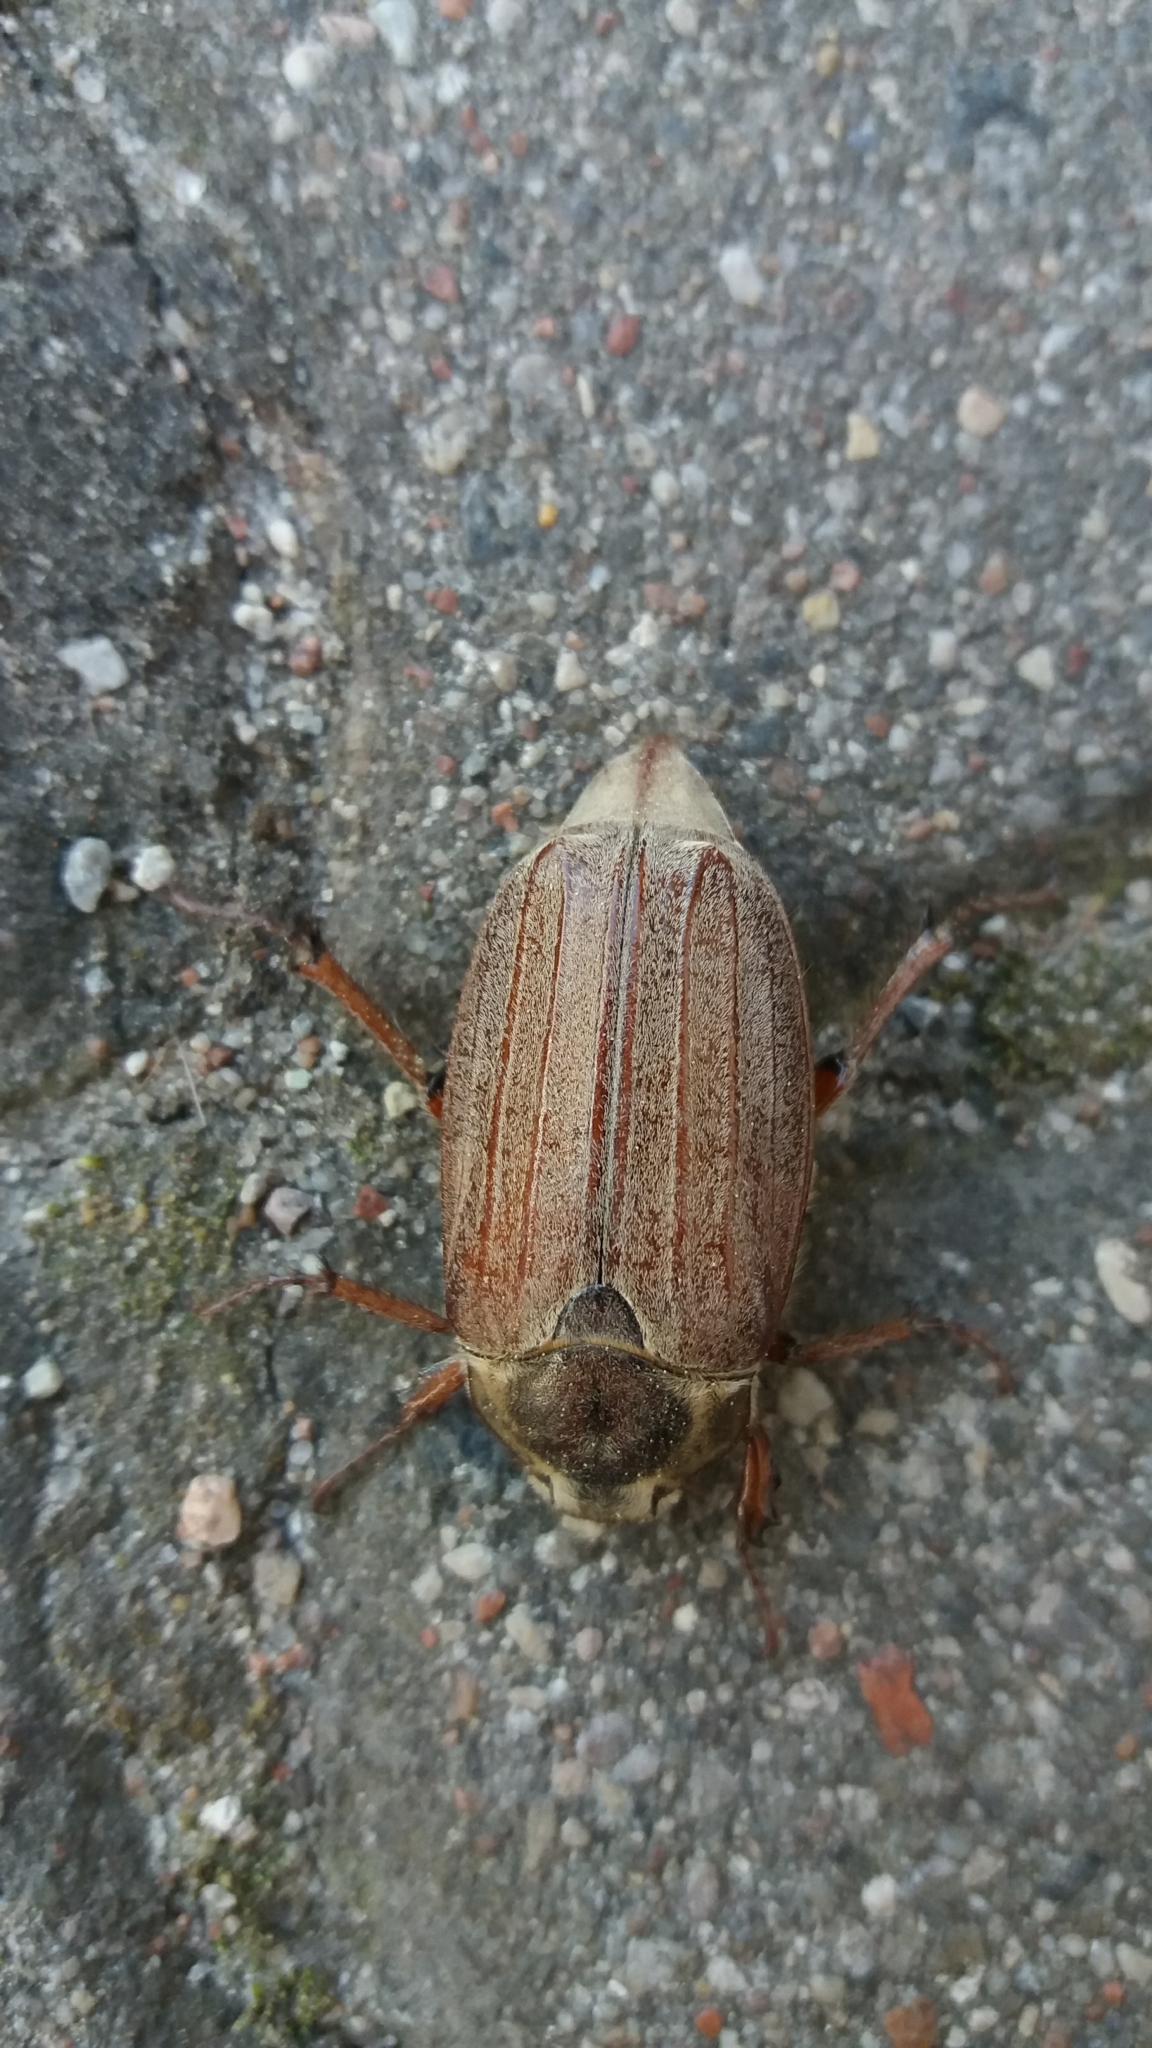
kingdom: Animalia
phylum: Arthropoda
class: Insecta
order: Coleoptera
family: Scarabaeidae
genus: Melolontha
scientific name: Melolontha melolontha
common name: Cockchafer maybeetle
